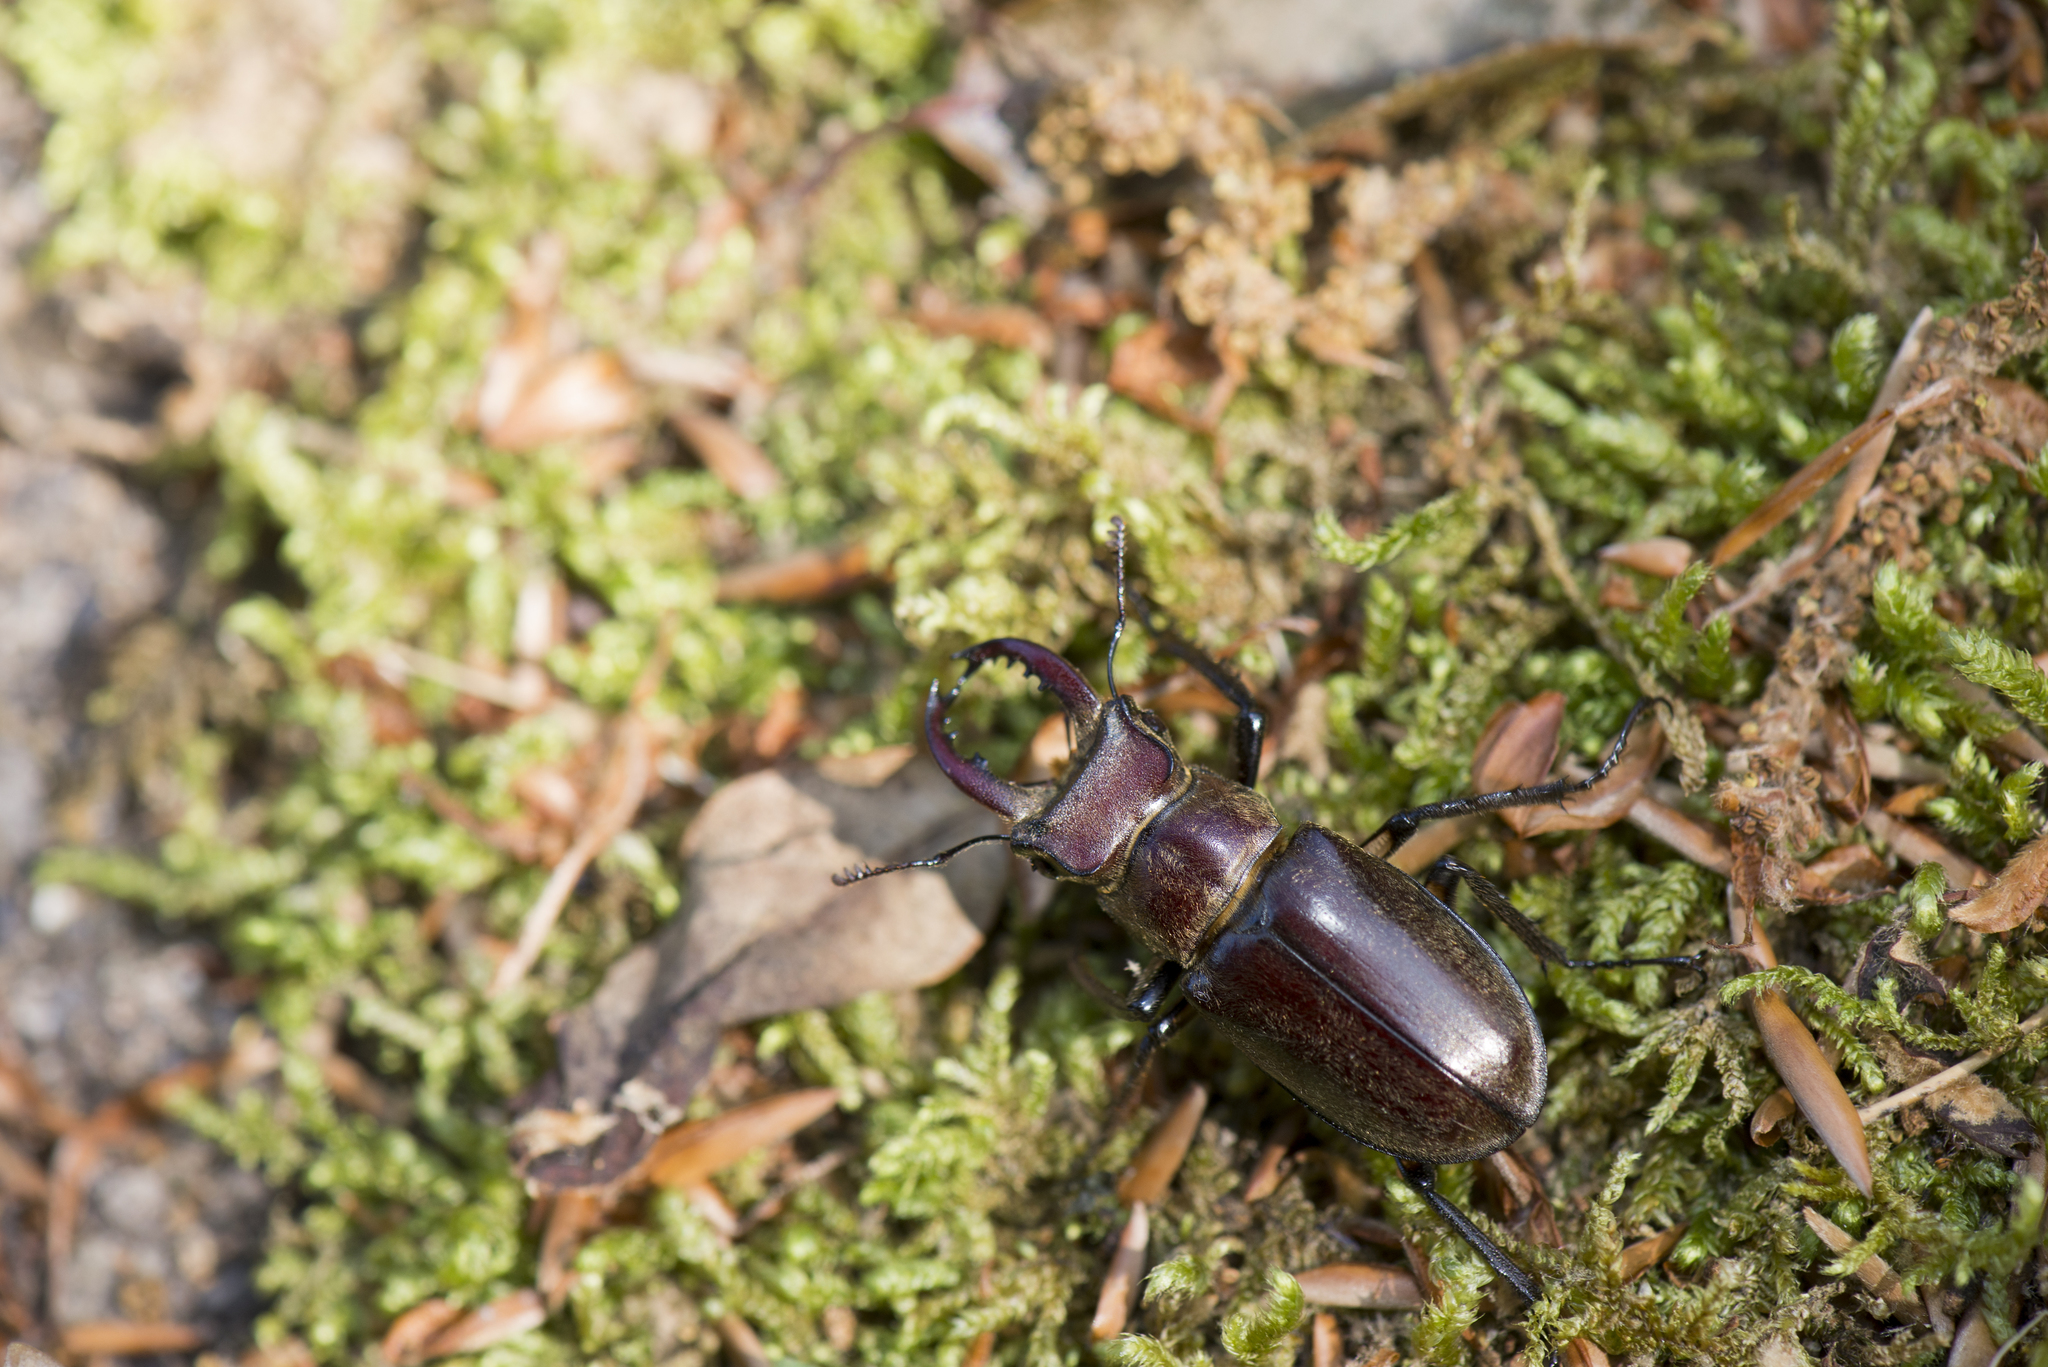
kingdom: Animalia
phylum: Arthropoda
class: Insecta
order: Coleoptera
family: Lucanidae
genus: Lucanus
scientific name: Lucanus kurosawai
